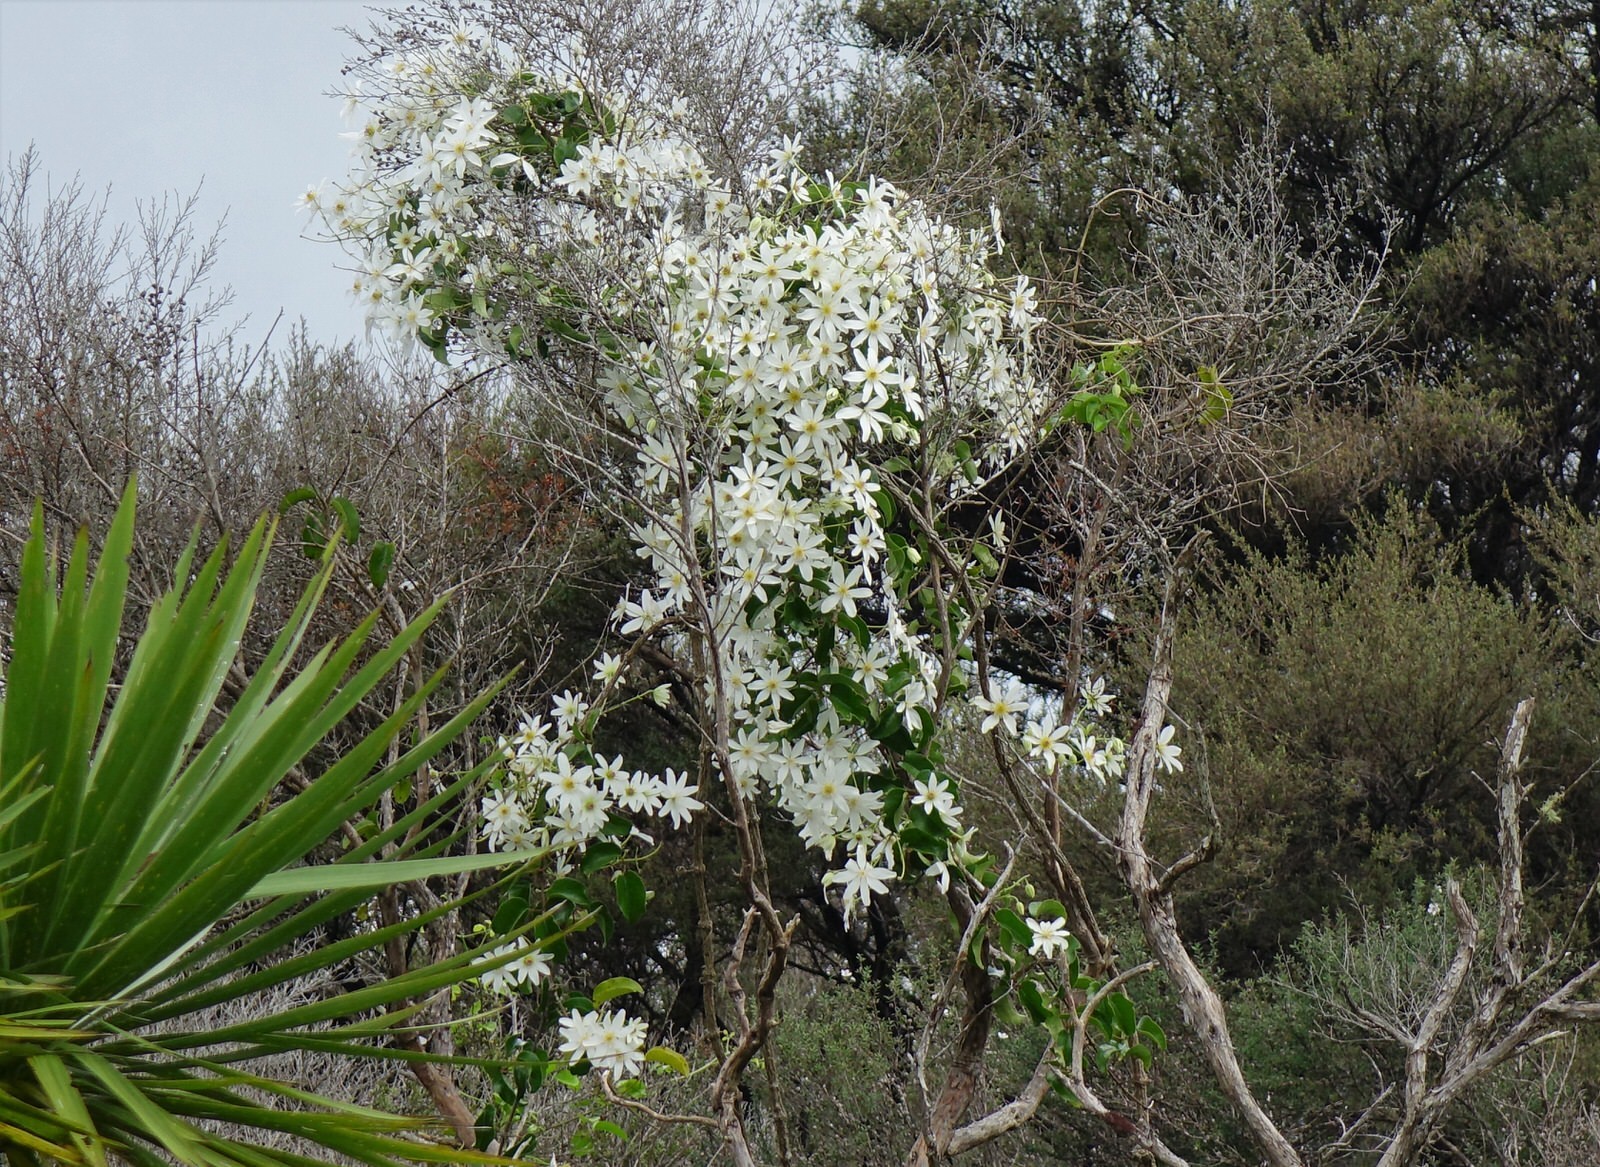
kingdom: Plantae
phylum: Tracheophyta
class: Magnoliopsida
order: Ranunculales
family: Ranunculaceae
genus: Clematis
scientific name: Clematis paniculata
